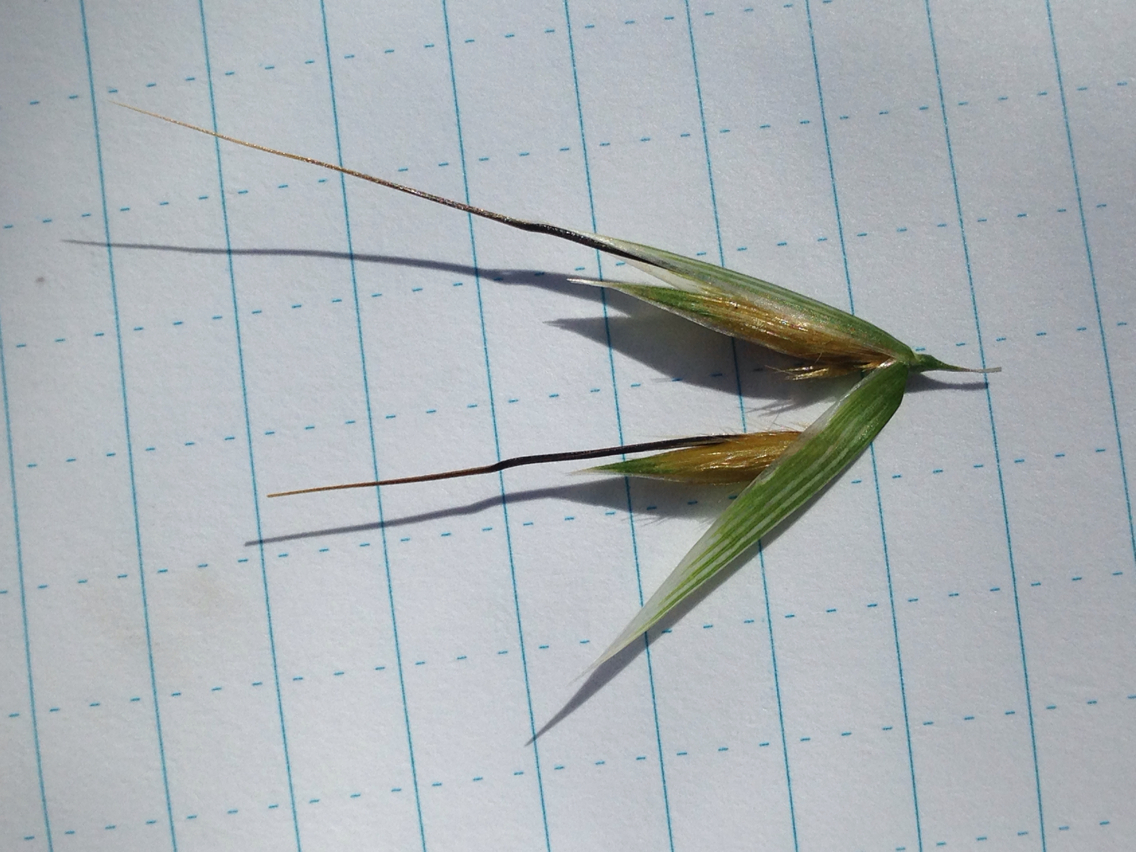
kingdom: Plantae
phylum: Tracheophyta
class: Liliopsida
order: Poales
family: Poaceae
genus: Avena
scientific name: Avena fatua
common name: Wild oat
